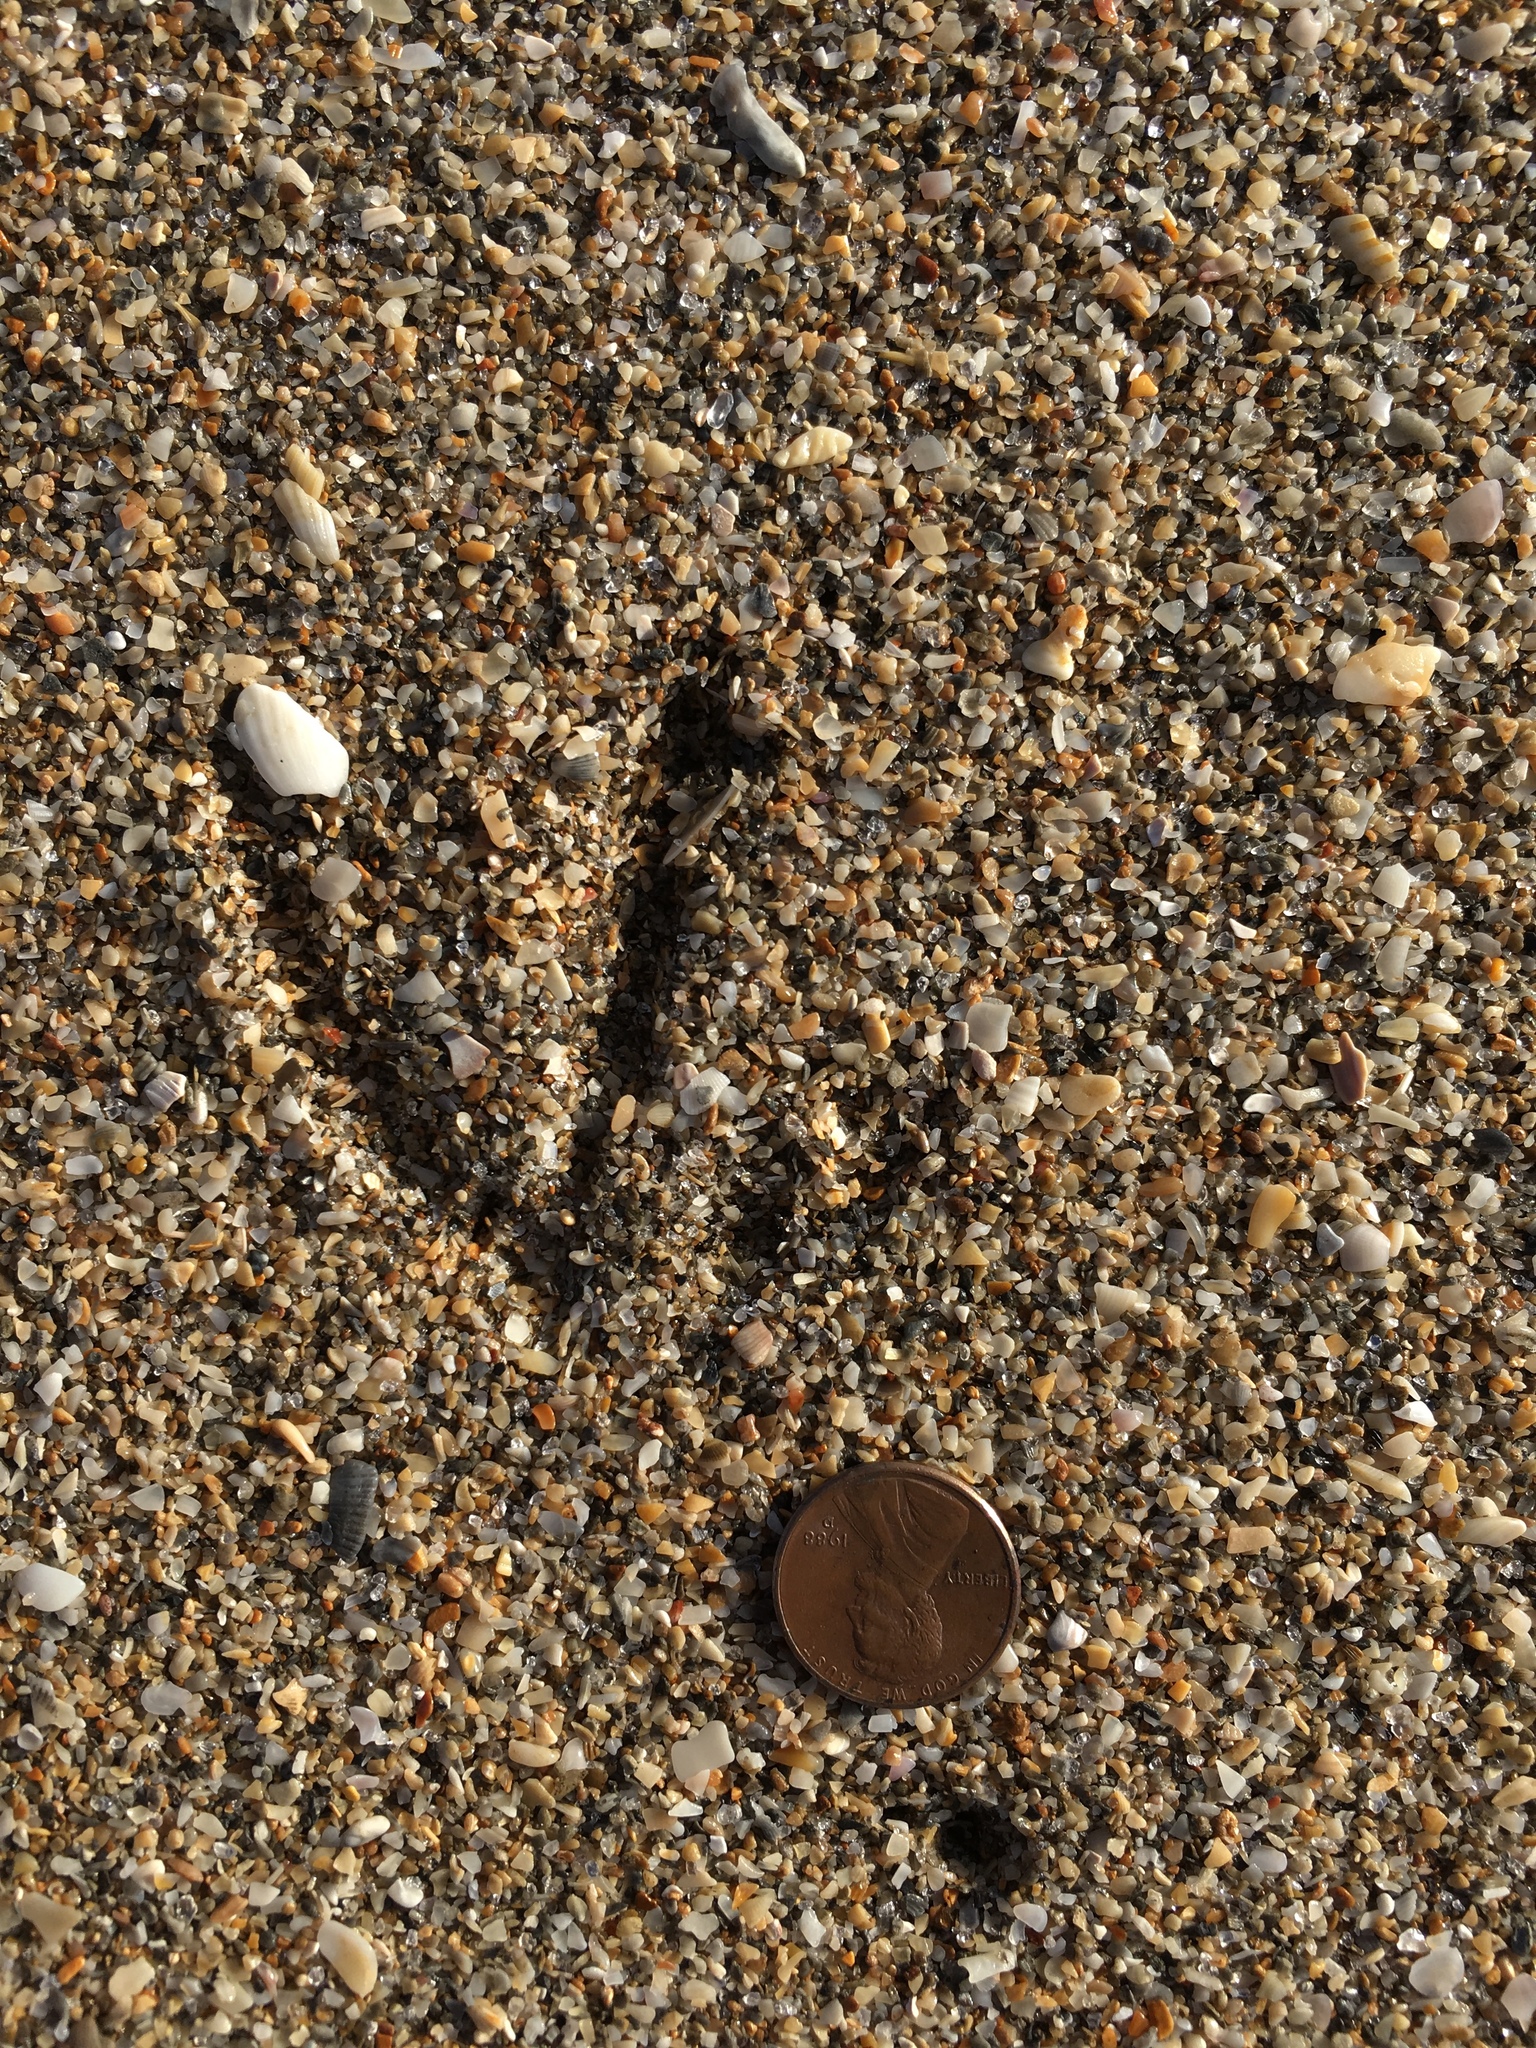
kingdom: Animalia
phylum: Chordata
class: Aves
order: Charadriiformes
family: Laridae
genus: Larus
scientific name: Larus delawarensis
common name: Ring-billed gull
